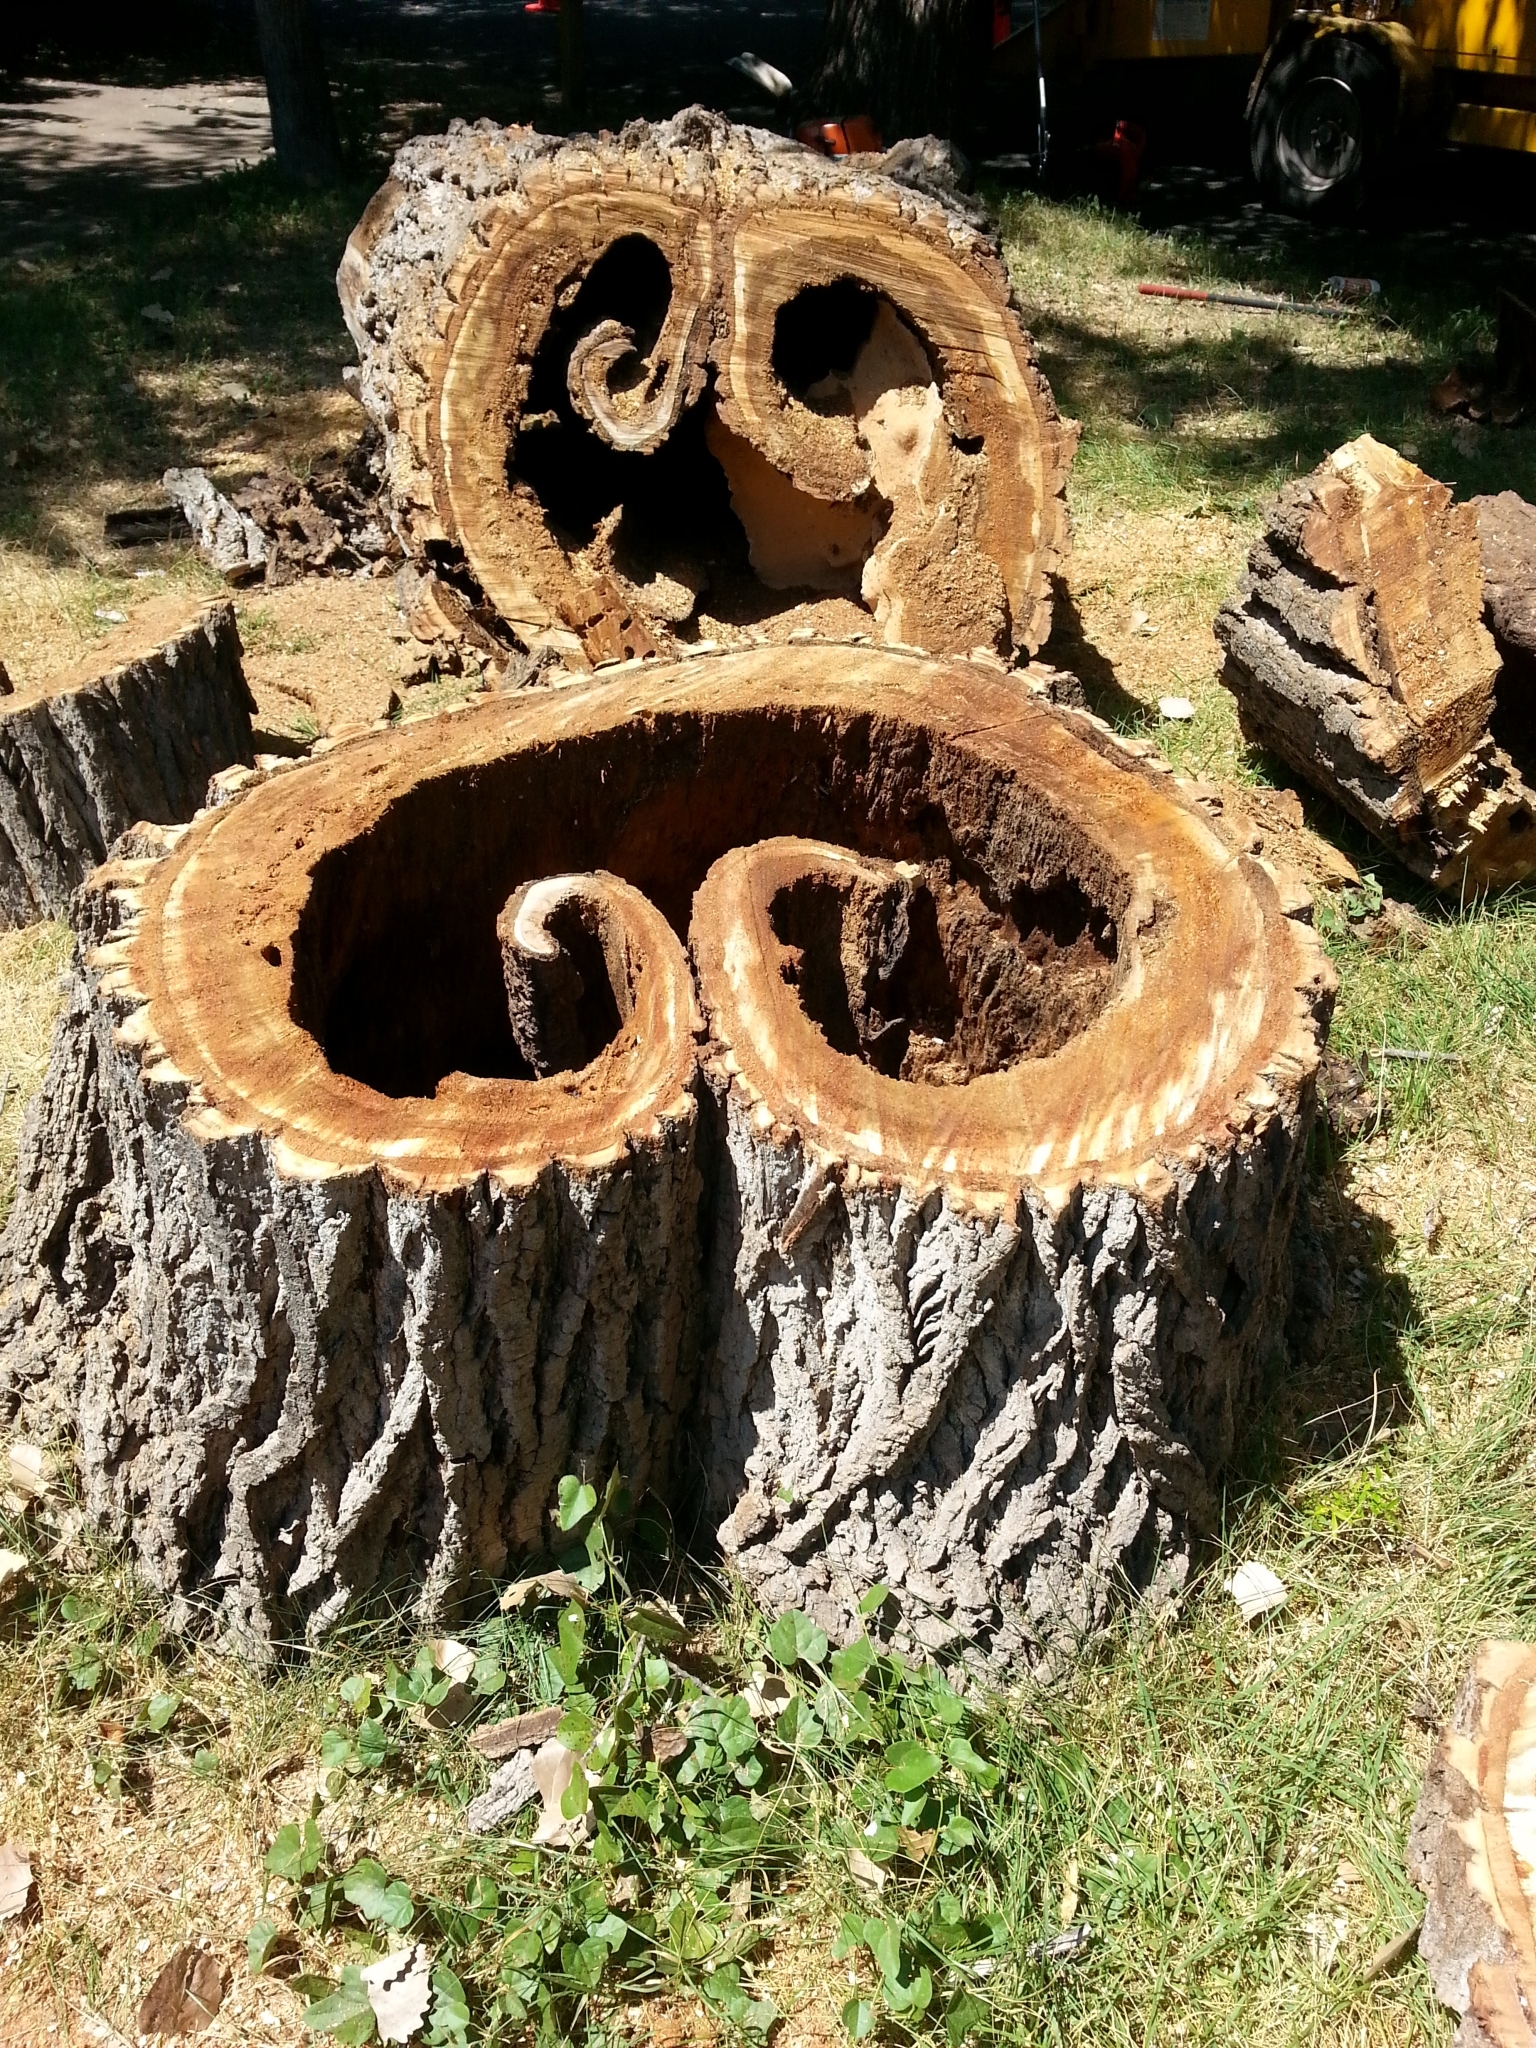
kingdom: Plantae
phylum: Tracheophyta
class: Magnoliopsida
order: Malpighiales
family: Salicaceae
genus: Populus
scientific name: Populus deltoides
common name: Eastern cottonwood
